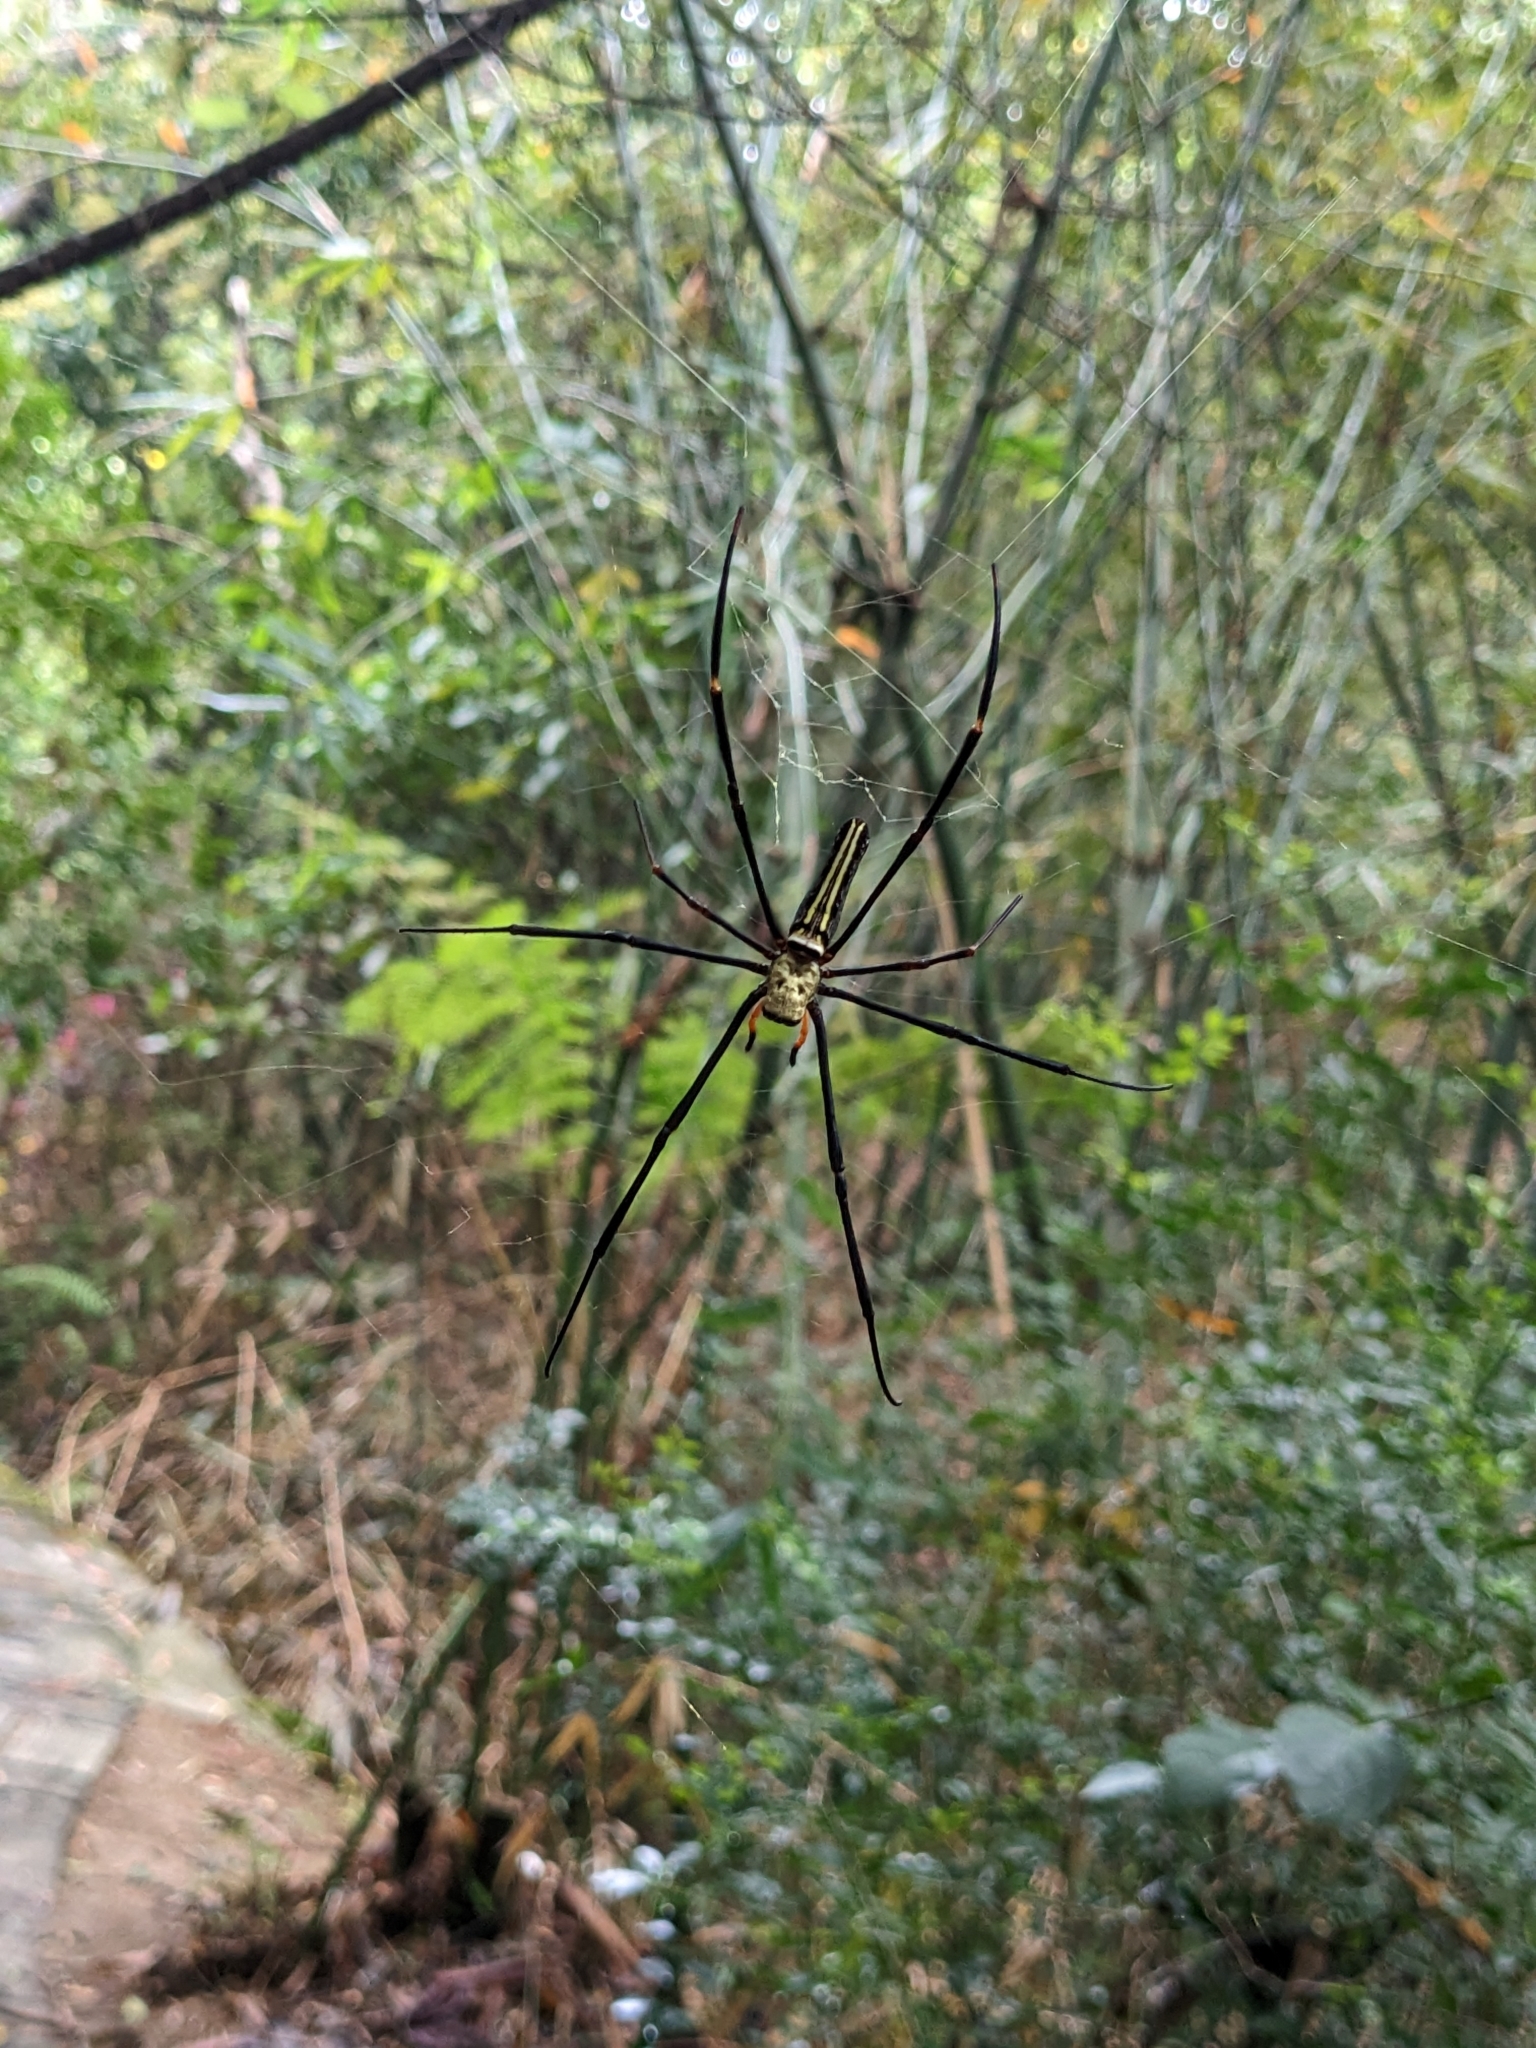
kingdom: Animalia
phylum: Arthropoda
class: Arachnida
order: Araneae
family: Araneidae
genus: Nephila
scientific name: Nephila pilipes
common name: Giant golden orb weaver
